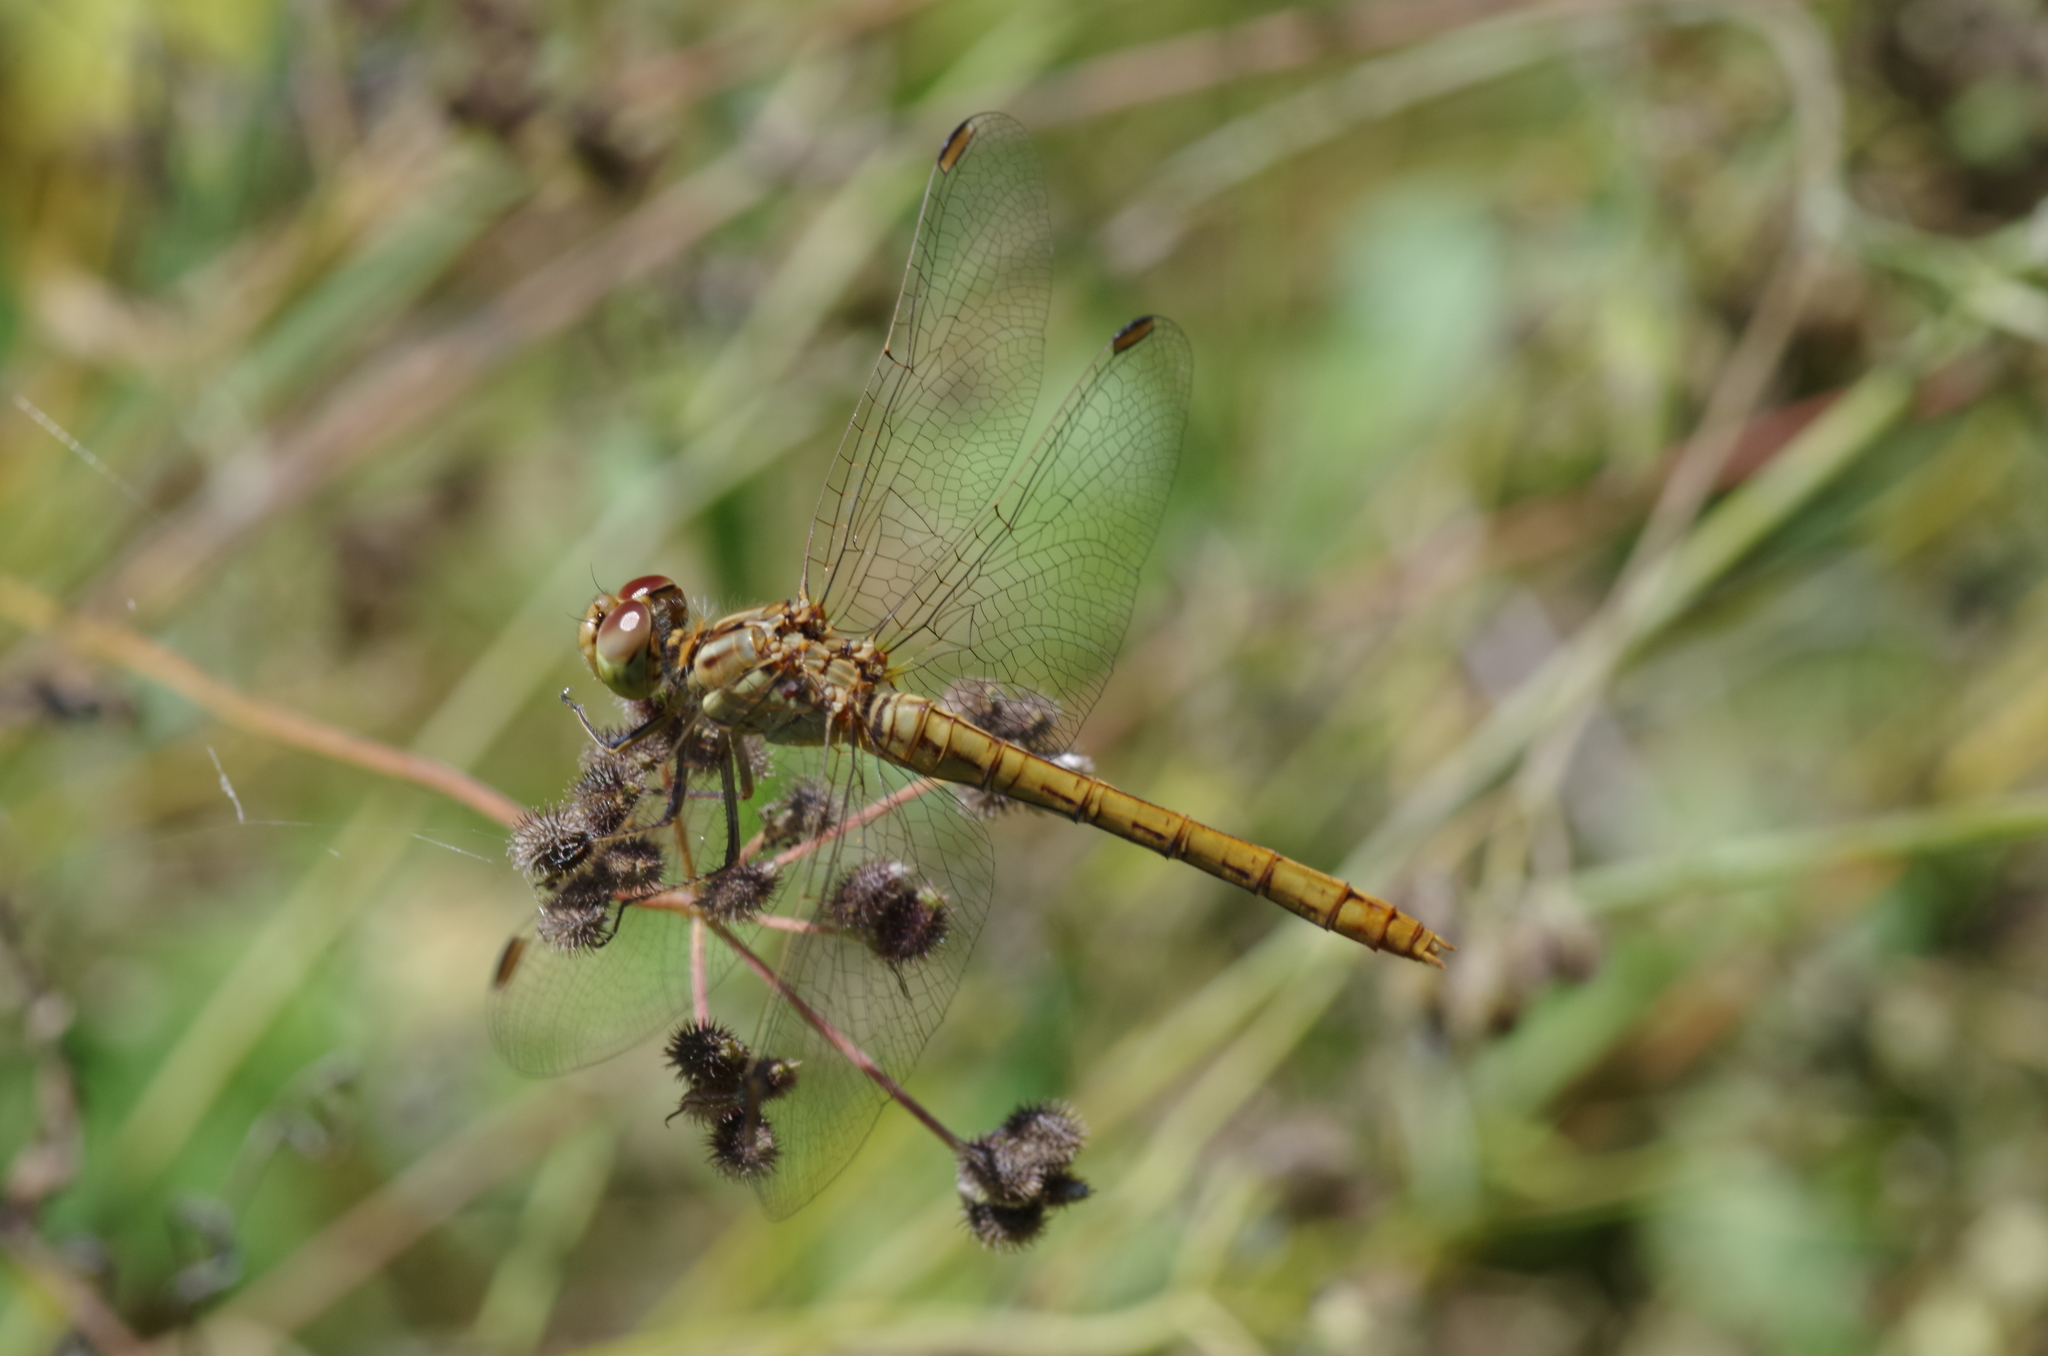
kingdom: Animalia
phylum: Arthropoda
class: Insecta
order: Odonata
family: Libellulidae
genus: Sympetrum
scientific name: Sympetrum meridionale
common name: Southern darter
